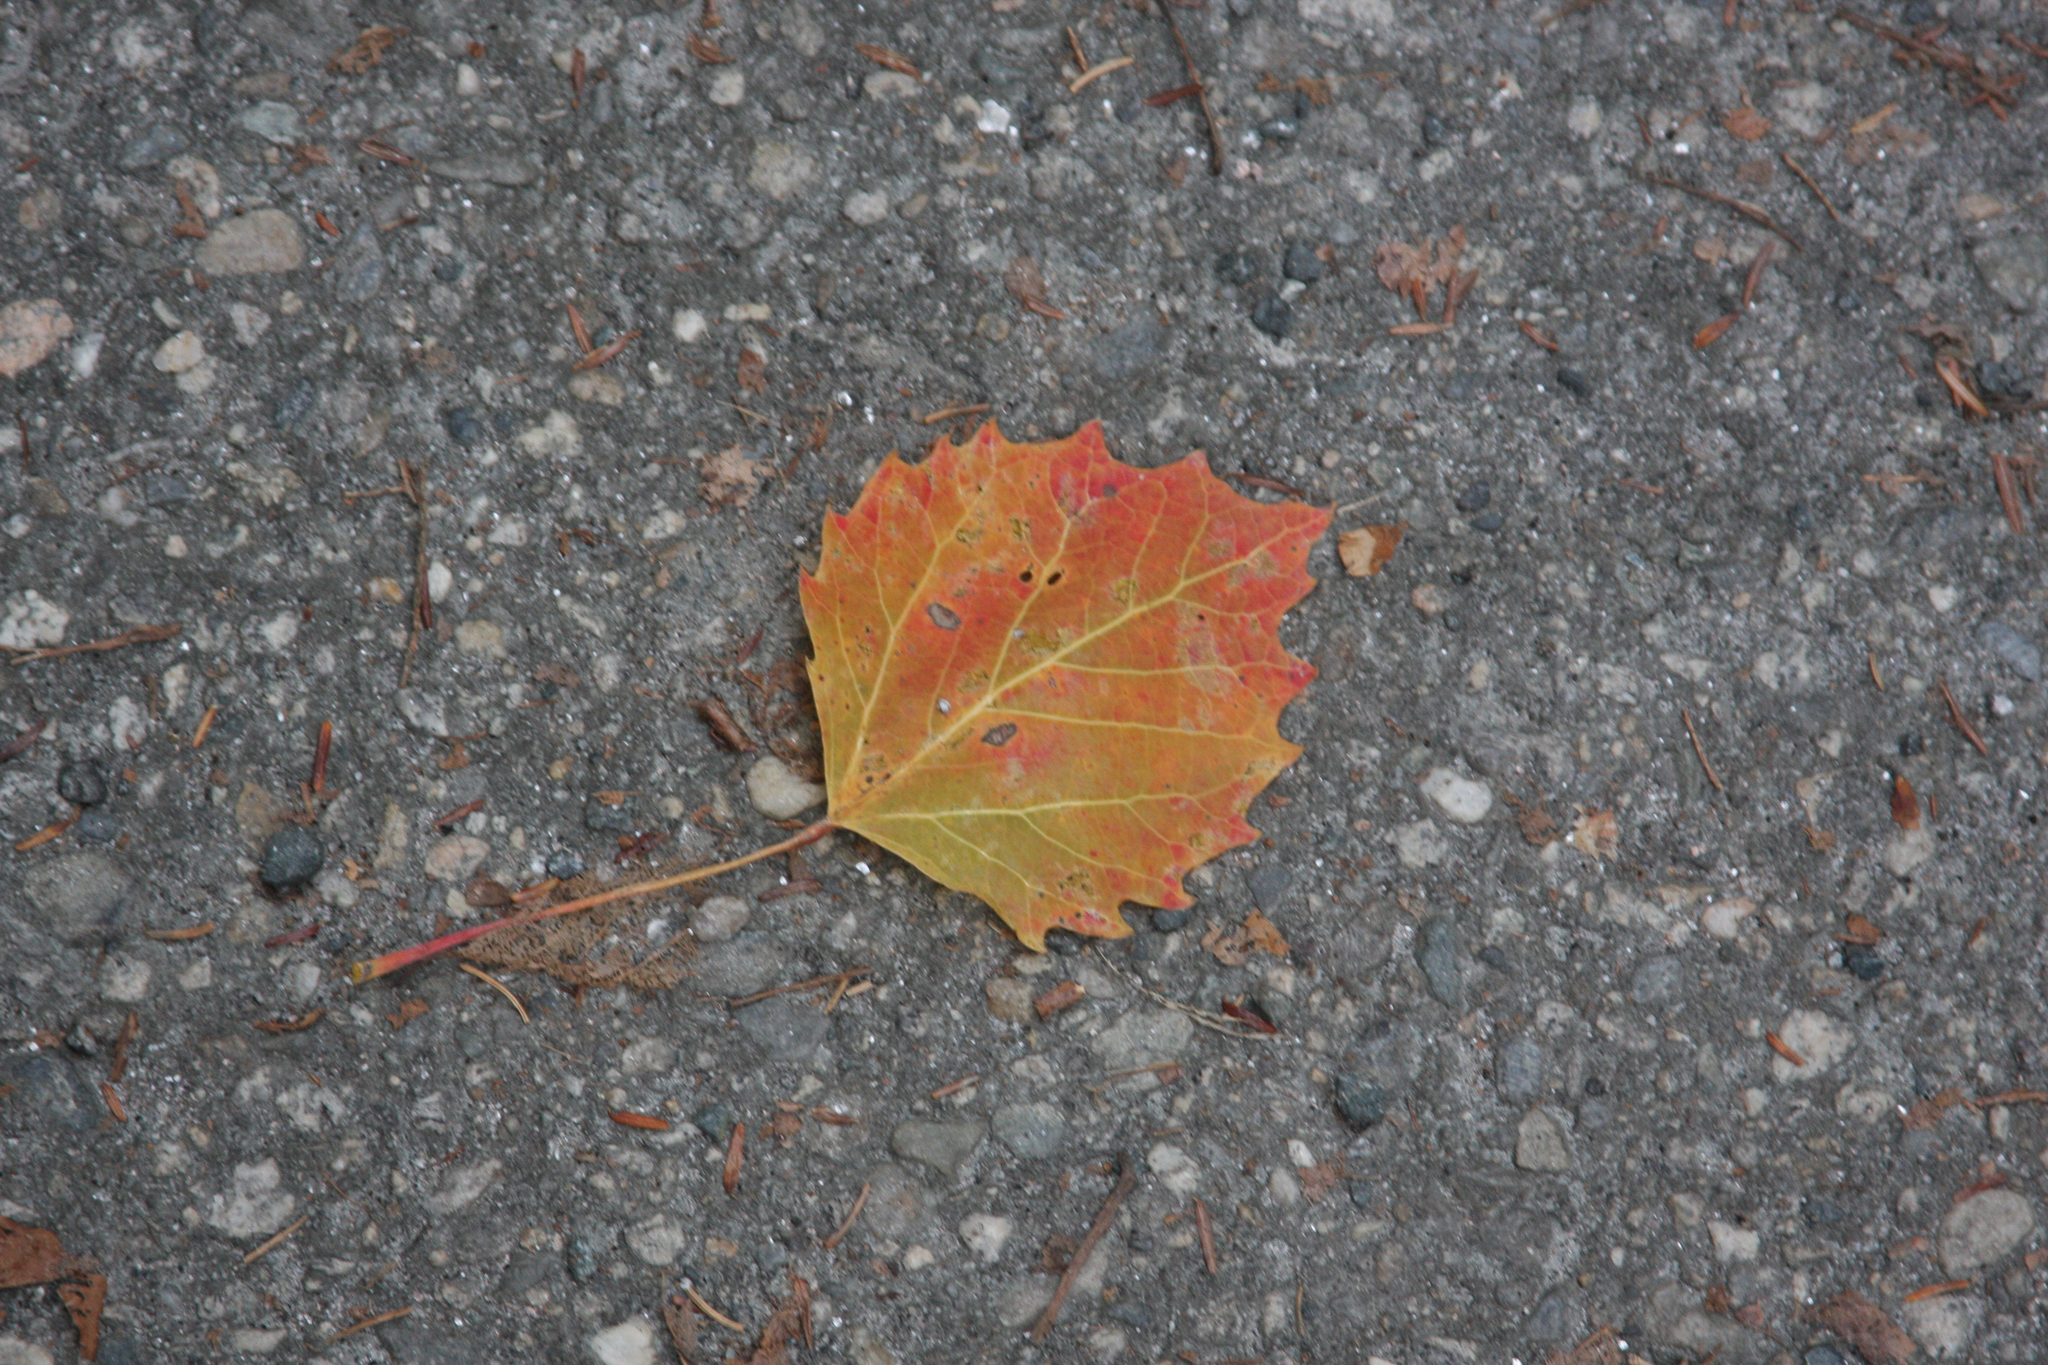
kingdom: Plantae
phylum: Tracheophyta
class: Magnoliopsida
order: Malpighiales
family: Salicaceae
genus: Populus
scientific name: Populus grandidentata
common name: Bigtooth aspen
